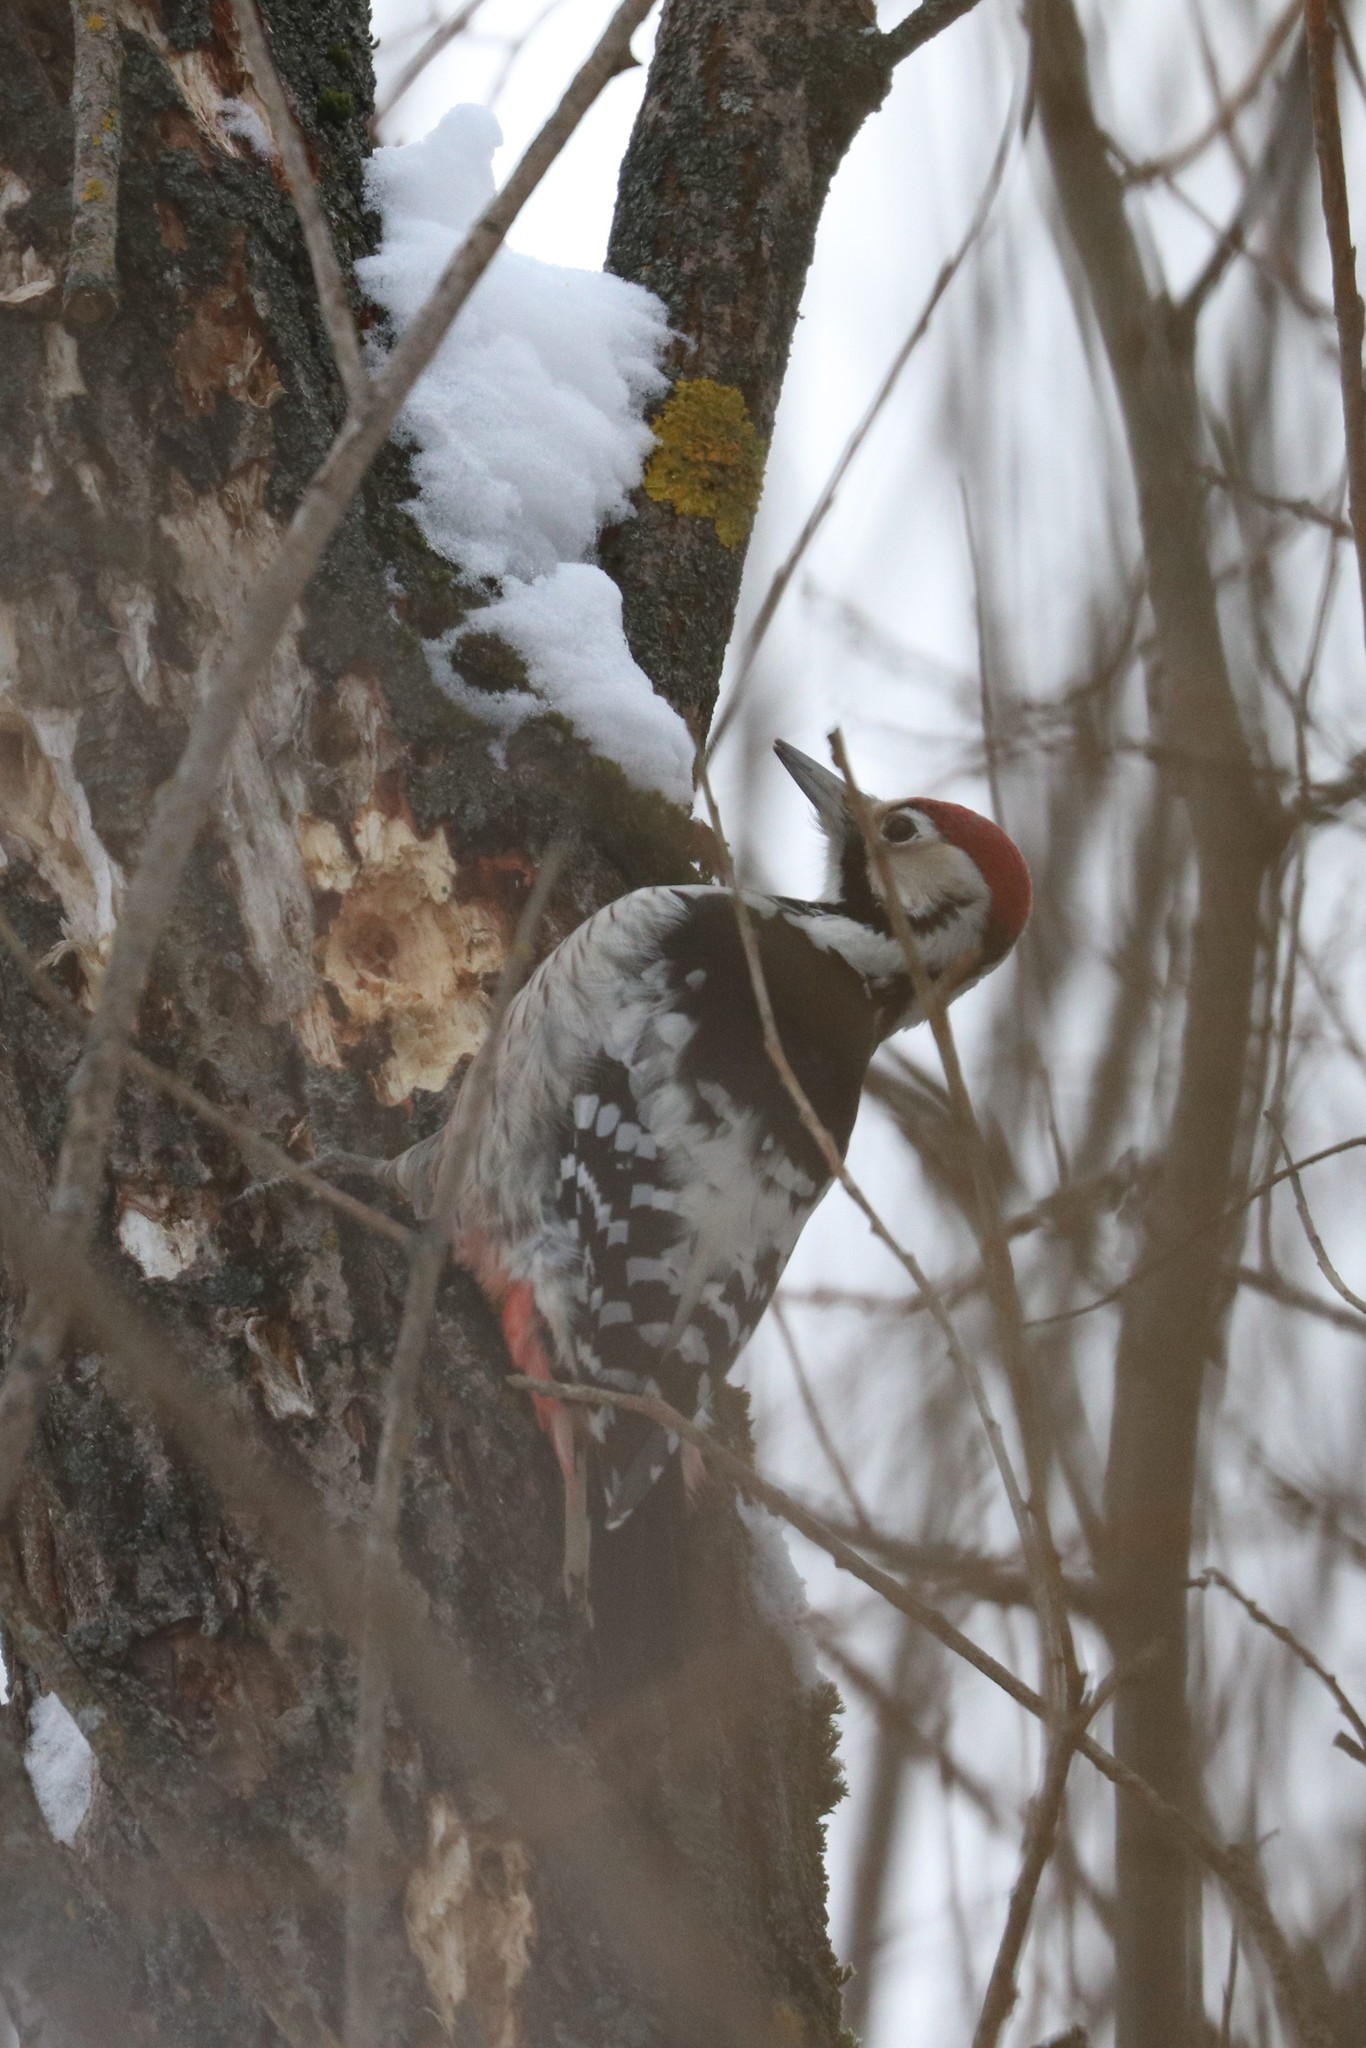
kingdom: Animalia
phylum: Chordata
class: Aves
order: Piciformes
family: Picidae
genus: Dendrocopos
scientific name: Dendrocopos leucotos
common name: White-backed woodpecker
